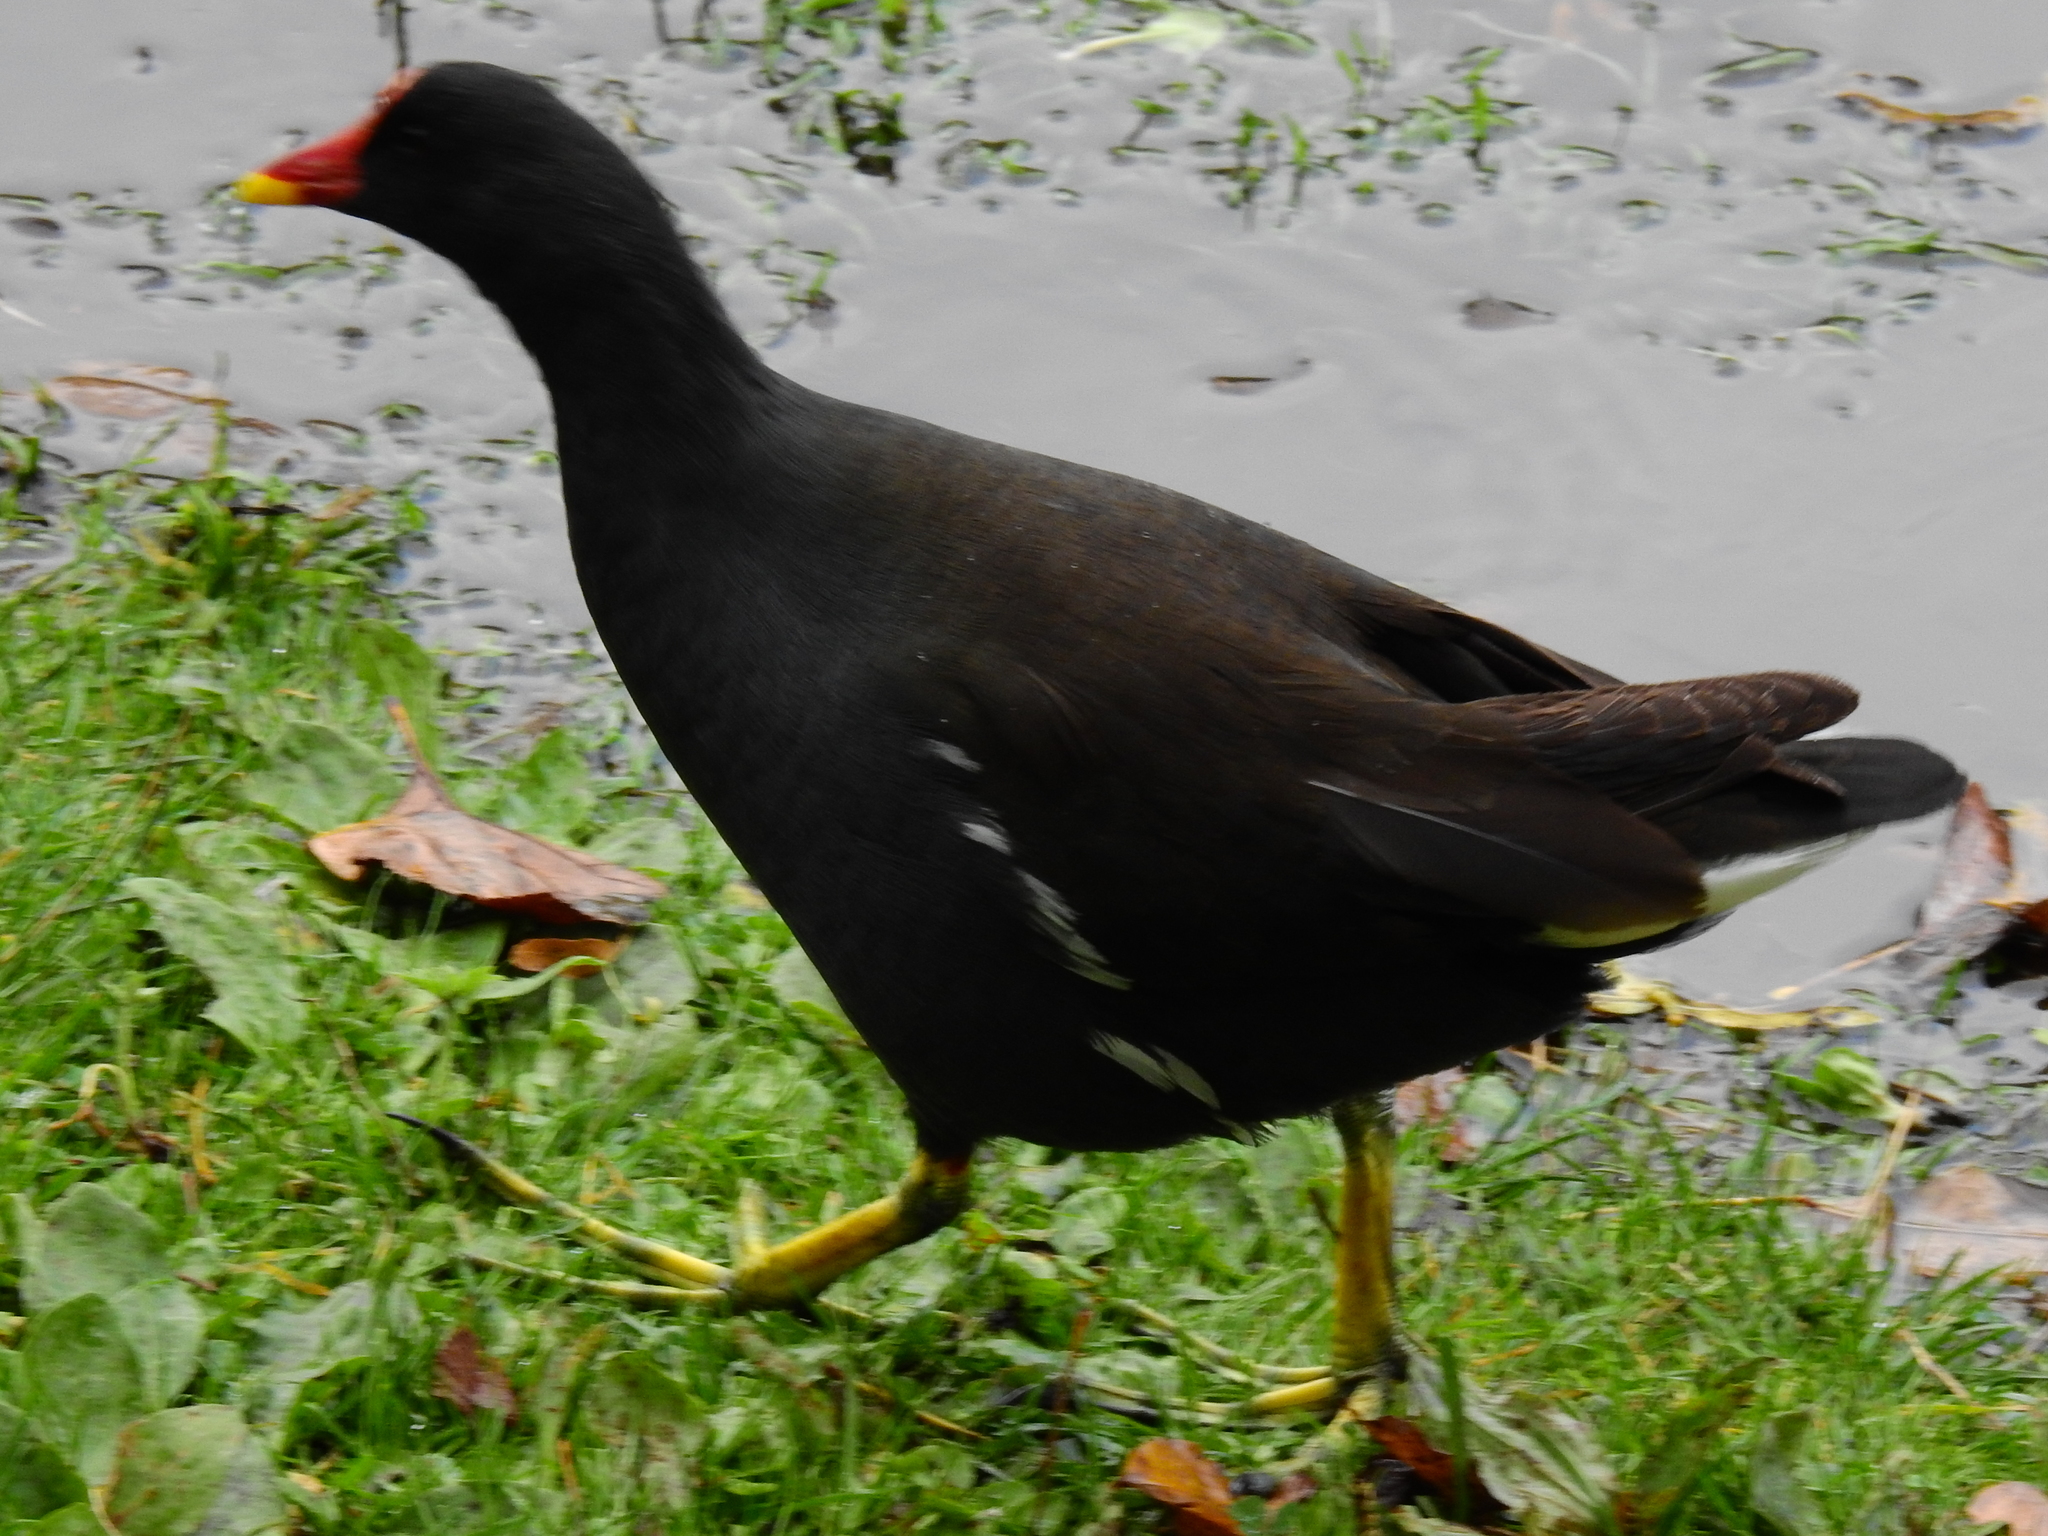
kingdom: Animalia
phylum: Chordata
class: Aves
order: Gruiformes
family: Rallidae
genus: Gallinula
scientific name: Gallinula chloropus
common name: Common moorhen
